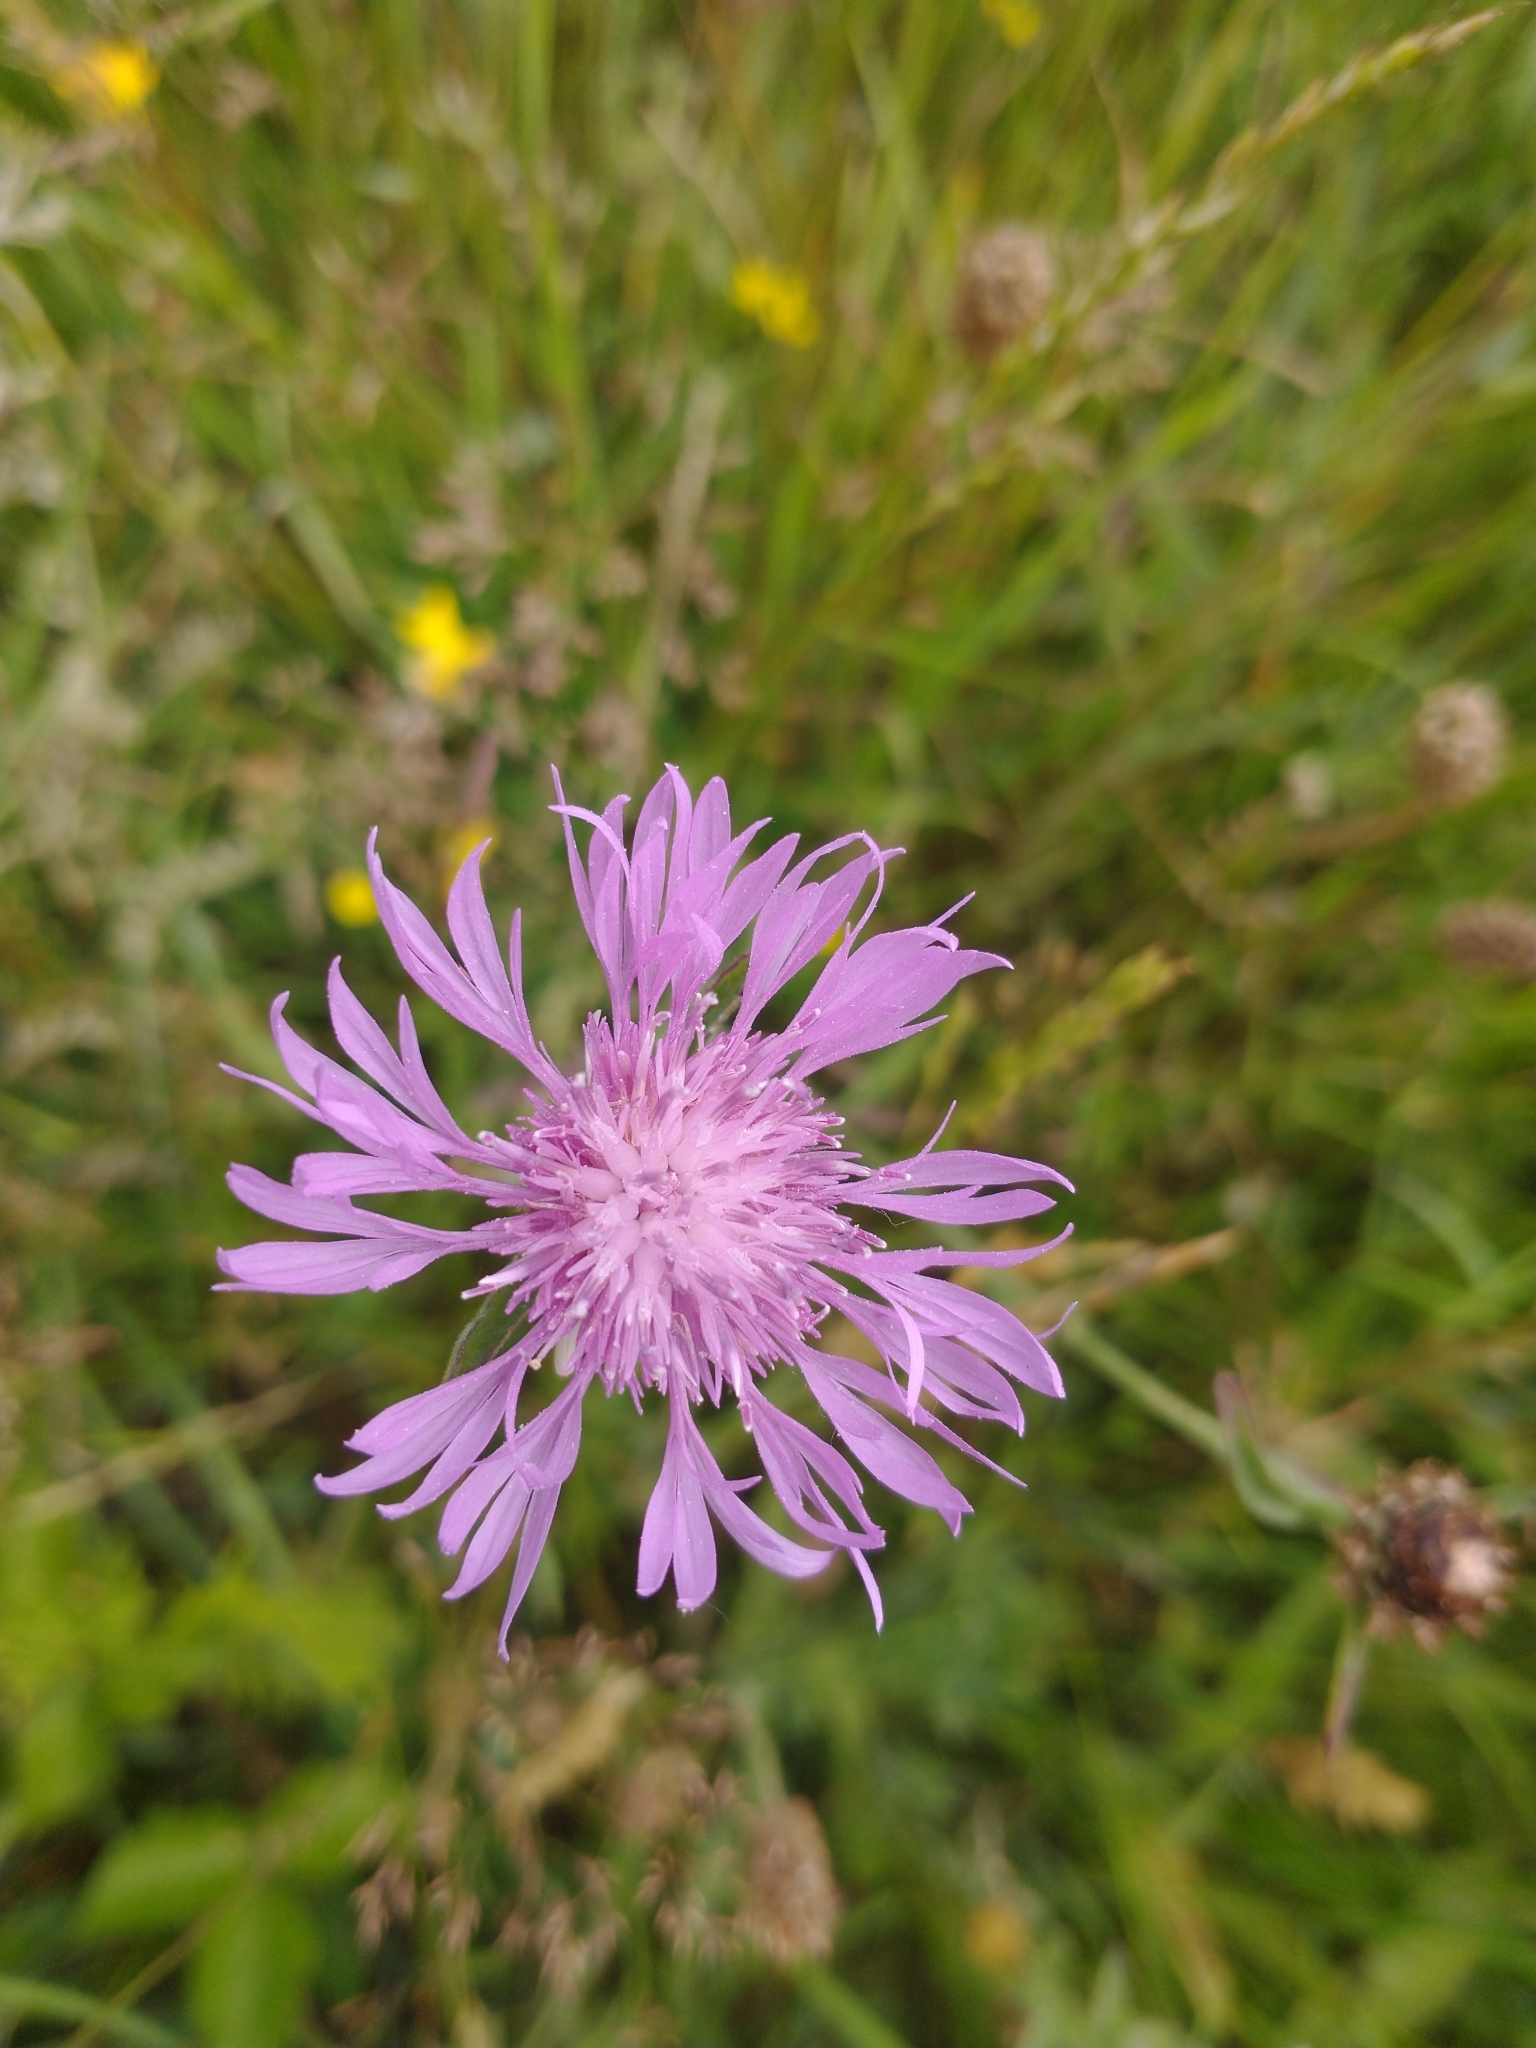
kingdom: Plantae
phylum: Tracheophyta
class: Magnoliopsida
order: Asterales
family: Asteraceae
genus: Centaurea
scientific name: Centaurea jacea
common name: Brown knapweed
